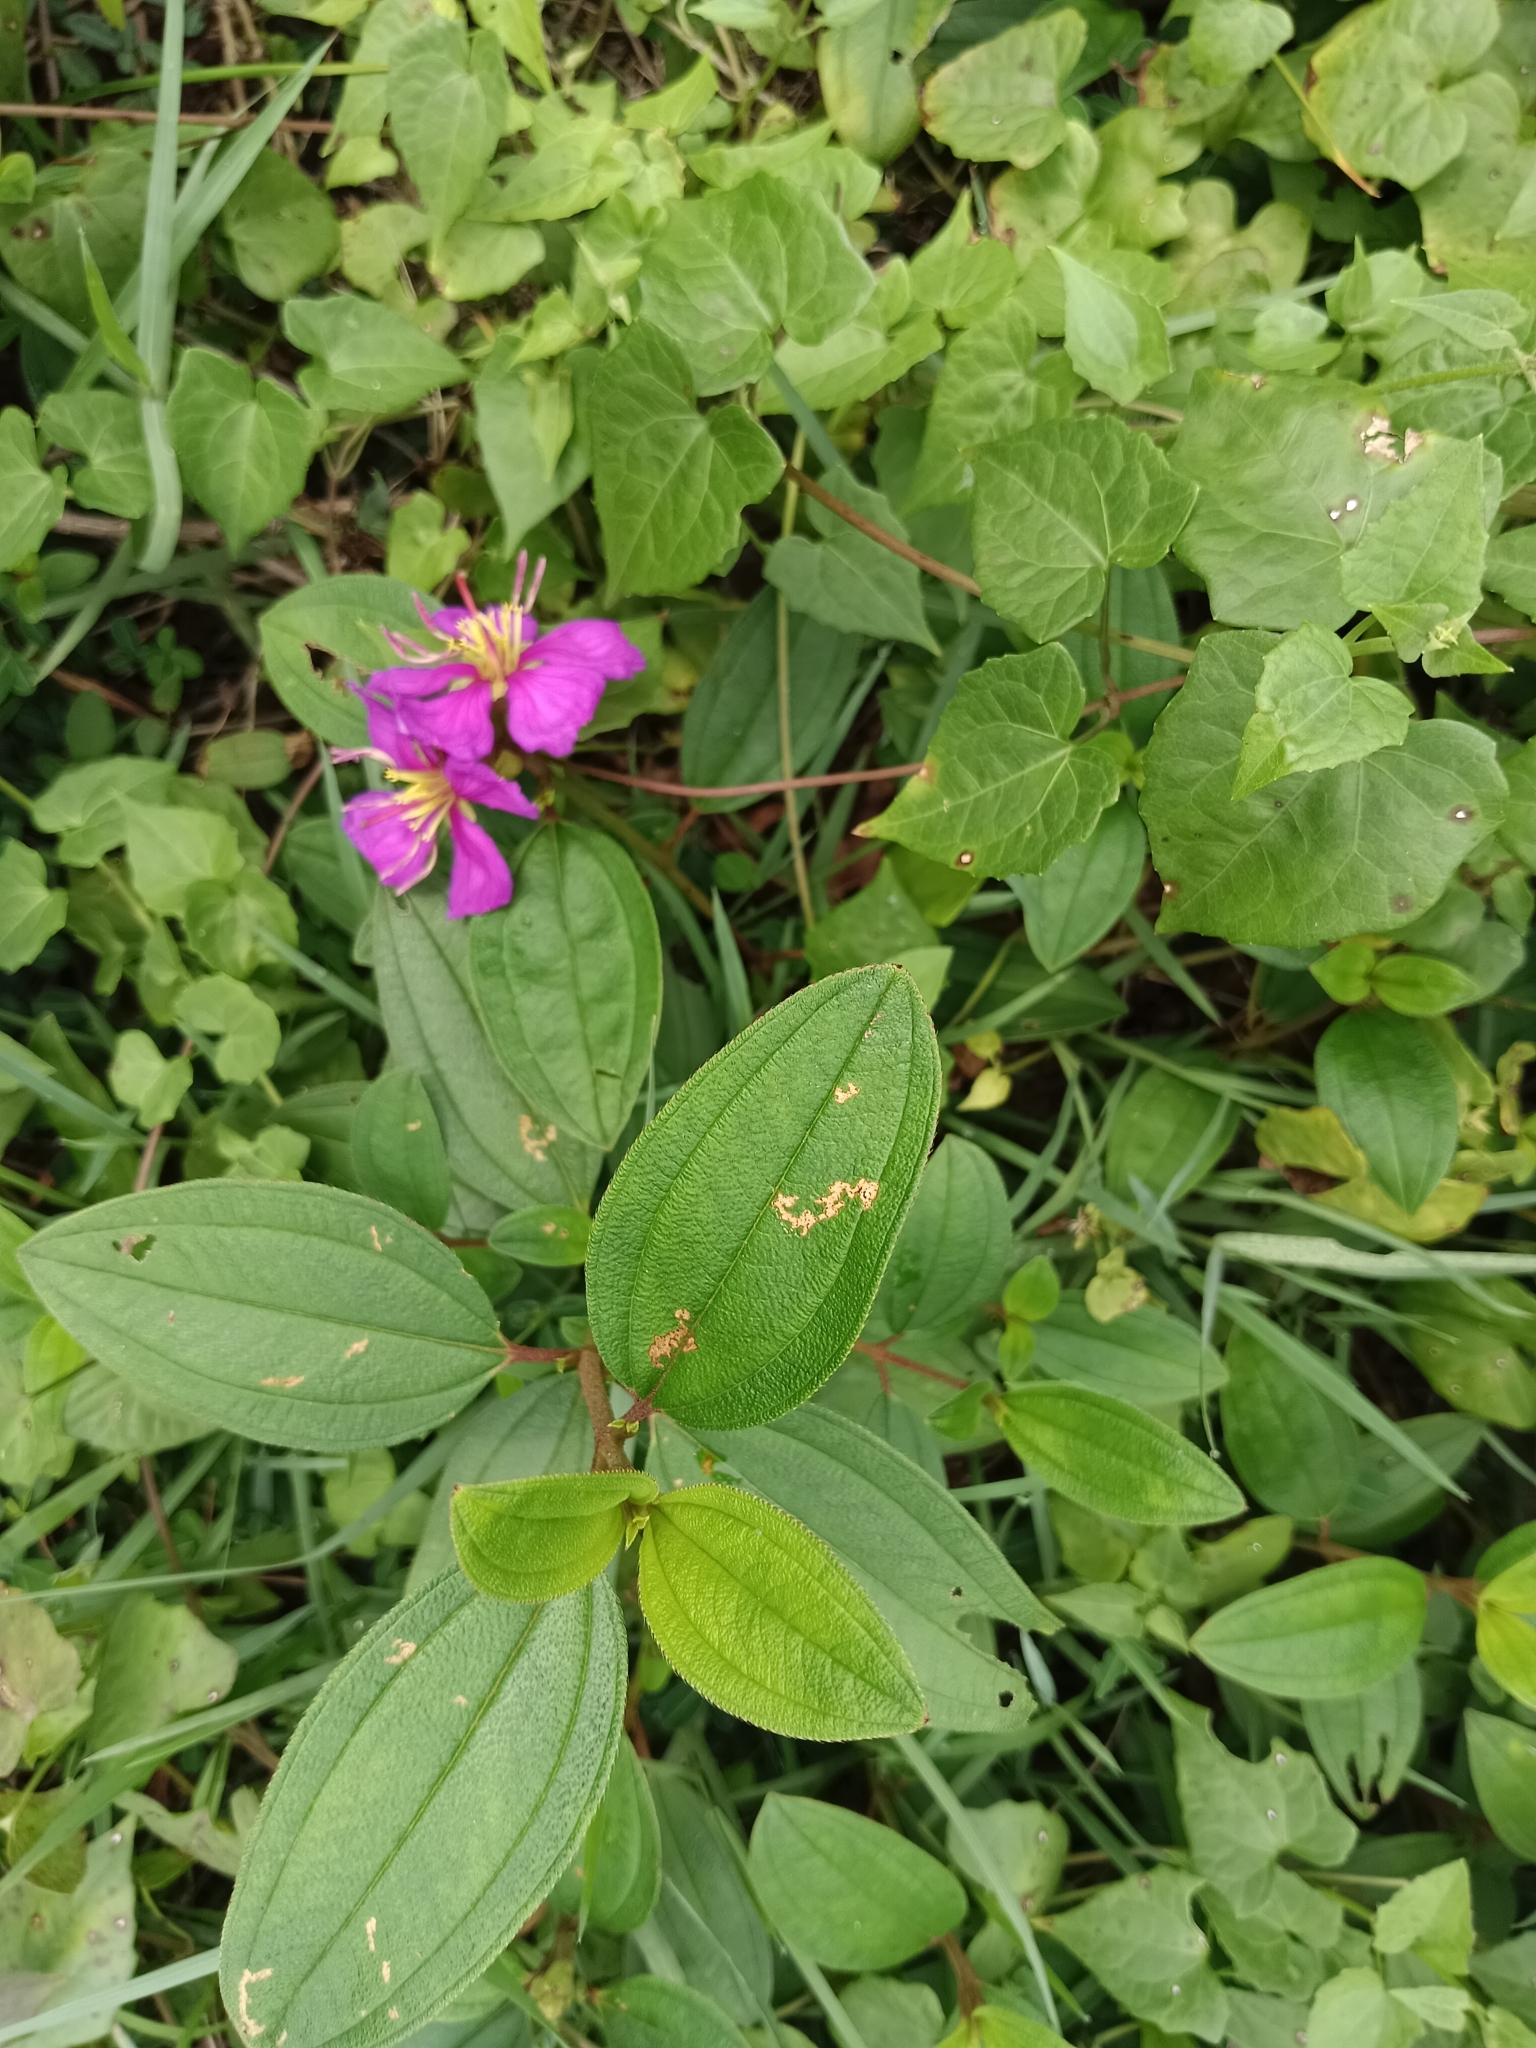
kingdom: Plantae
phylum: Tracheophyta
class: Magnoliopsida
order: Myrtales
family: Melastomataceae
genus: Melastoma
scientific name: Melastoma malabathricum
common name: Indian-rhododendron
